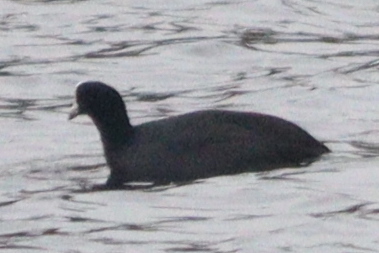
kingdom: Animalia
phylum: Chordata
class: Aves
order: Gruiformes
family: Rallidae
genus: Fulica
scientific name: Fulica atra
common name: Eurasian coot
